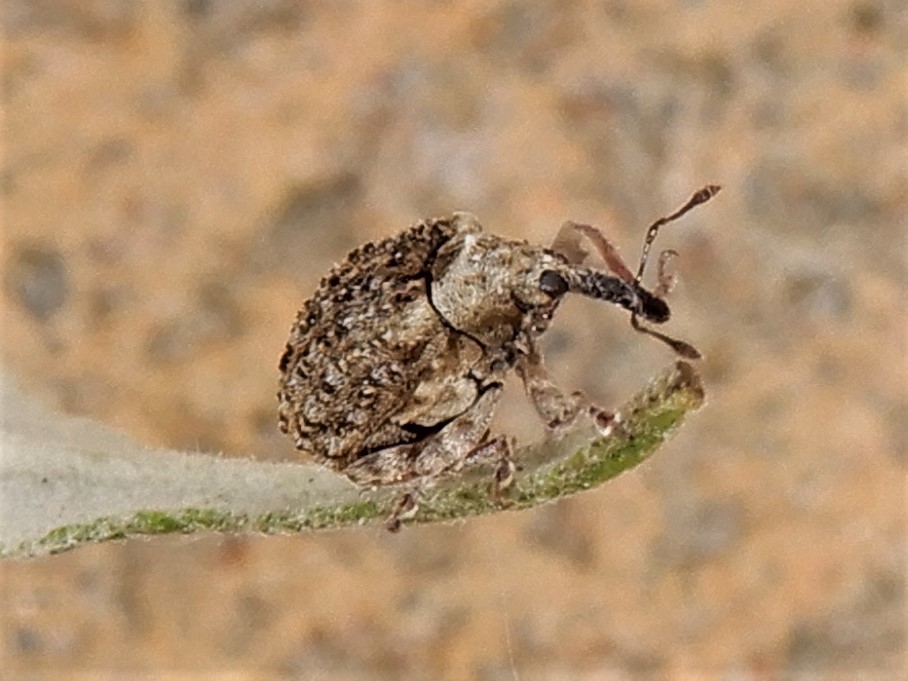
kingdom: Animalia
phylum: Arthropoda
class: Insecta
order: Coleoptera
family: Curculionidae
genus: Cleopus
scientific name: Cleopus japonicus
